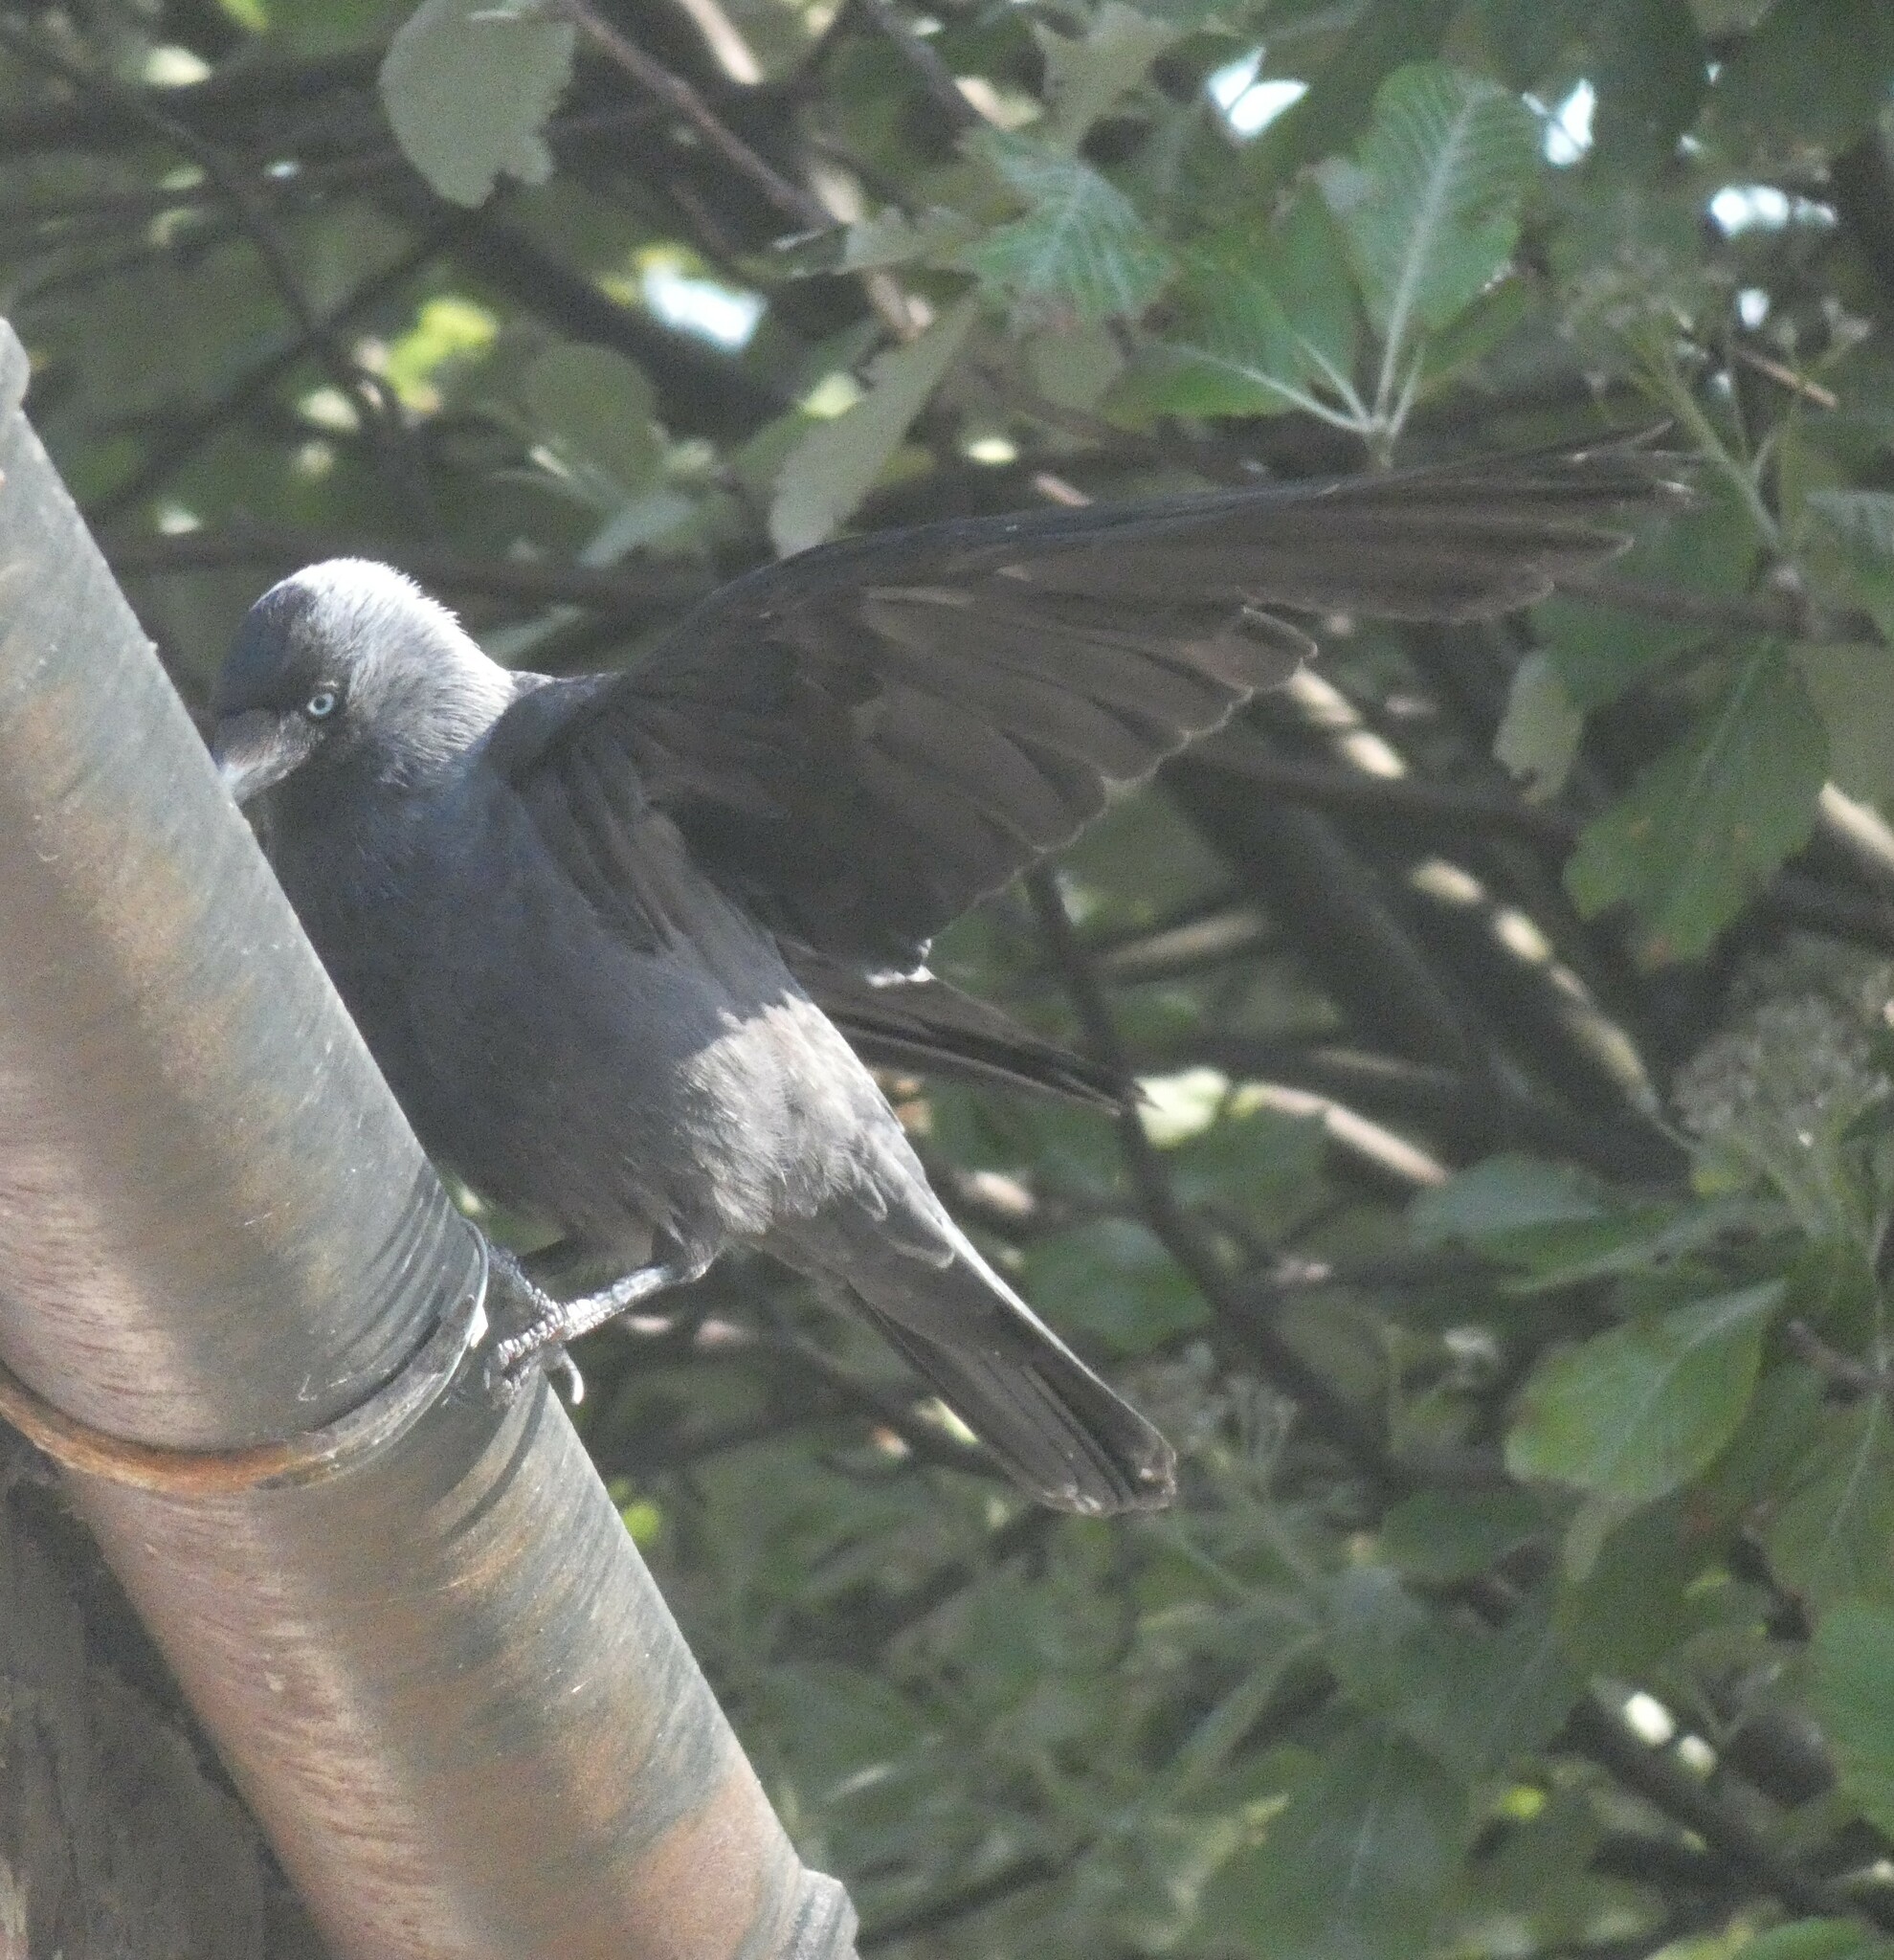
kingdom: Animalia
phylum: Chordata
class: Aves
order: Passeriformes
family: Corvidae
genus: Coloeus
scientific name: Coloeus monedula
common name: Western jackdaw
